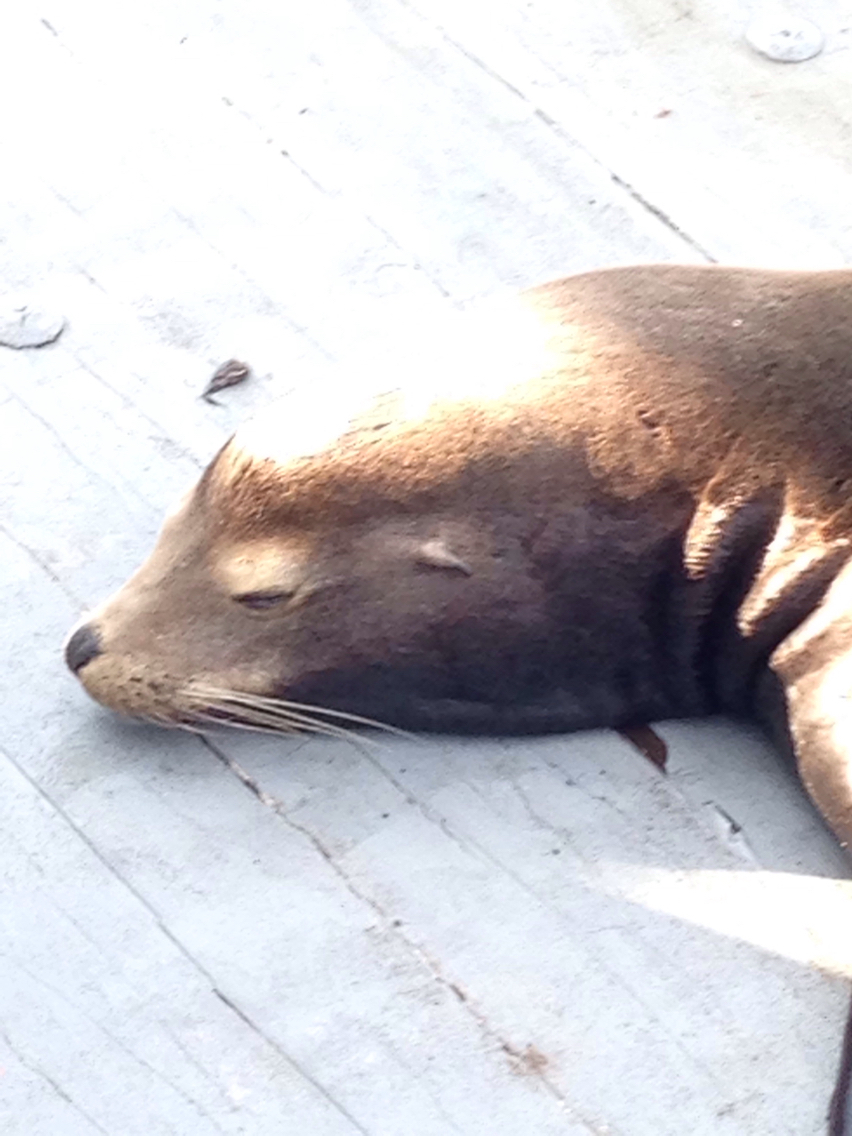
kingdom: Animalia
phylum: Chordata
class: Mammalia
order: Carnivora
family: Otariidae
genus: Zalophus
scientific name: Zalophus californianus
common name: California sea lion
